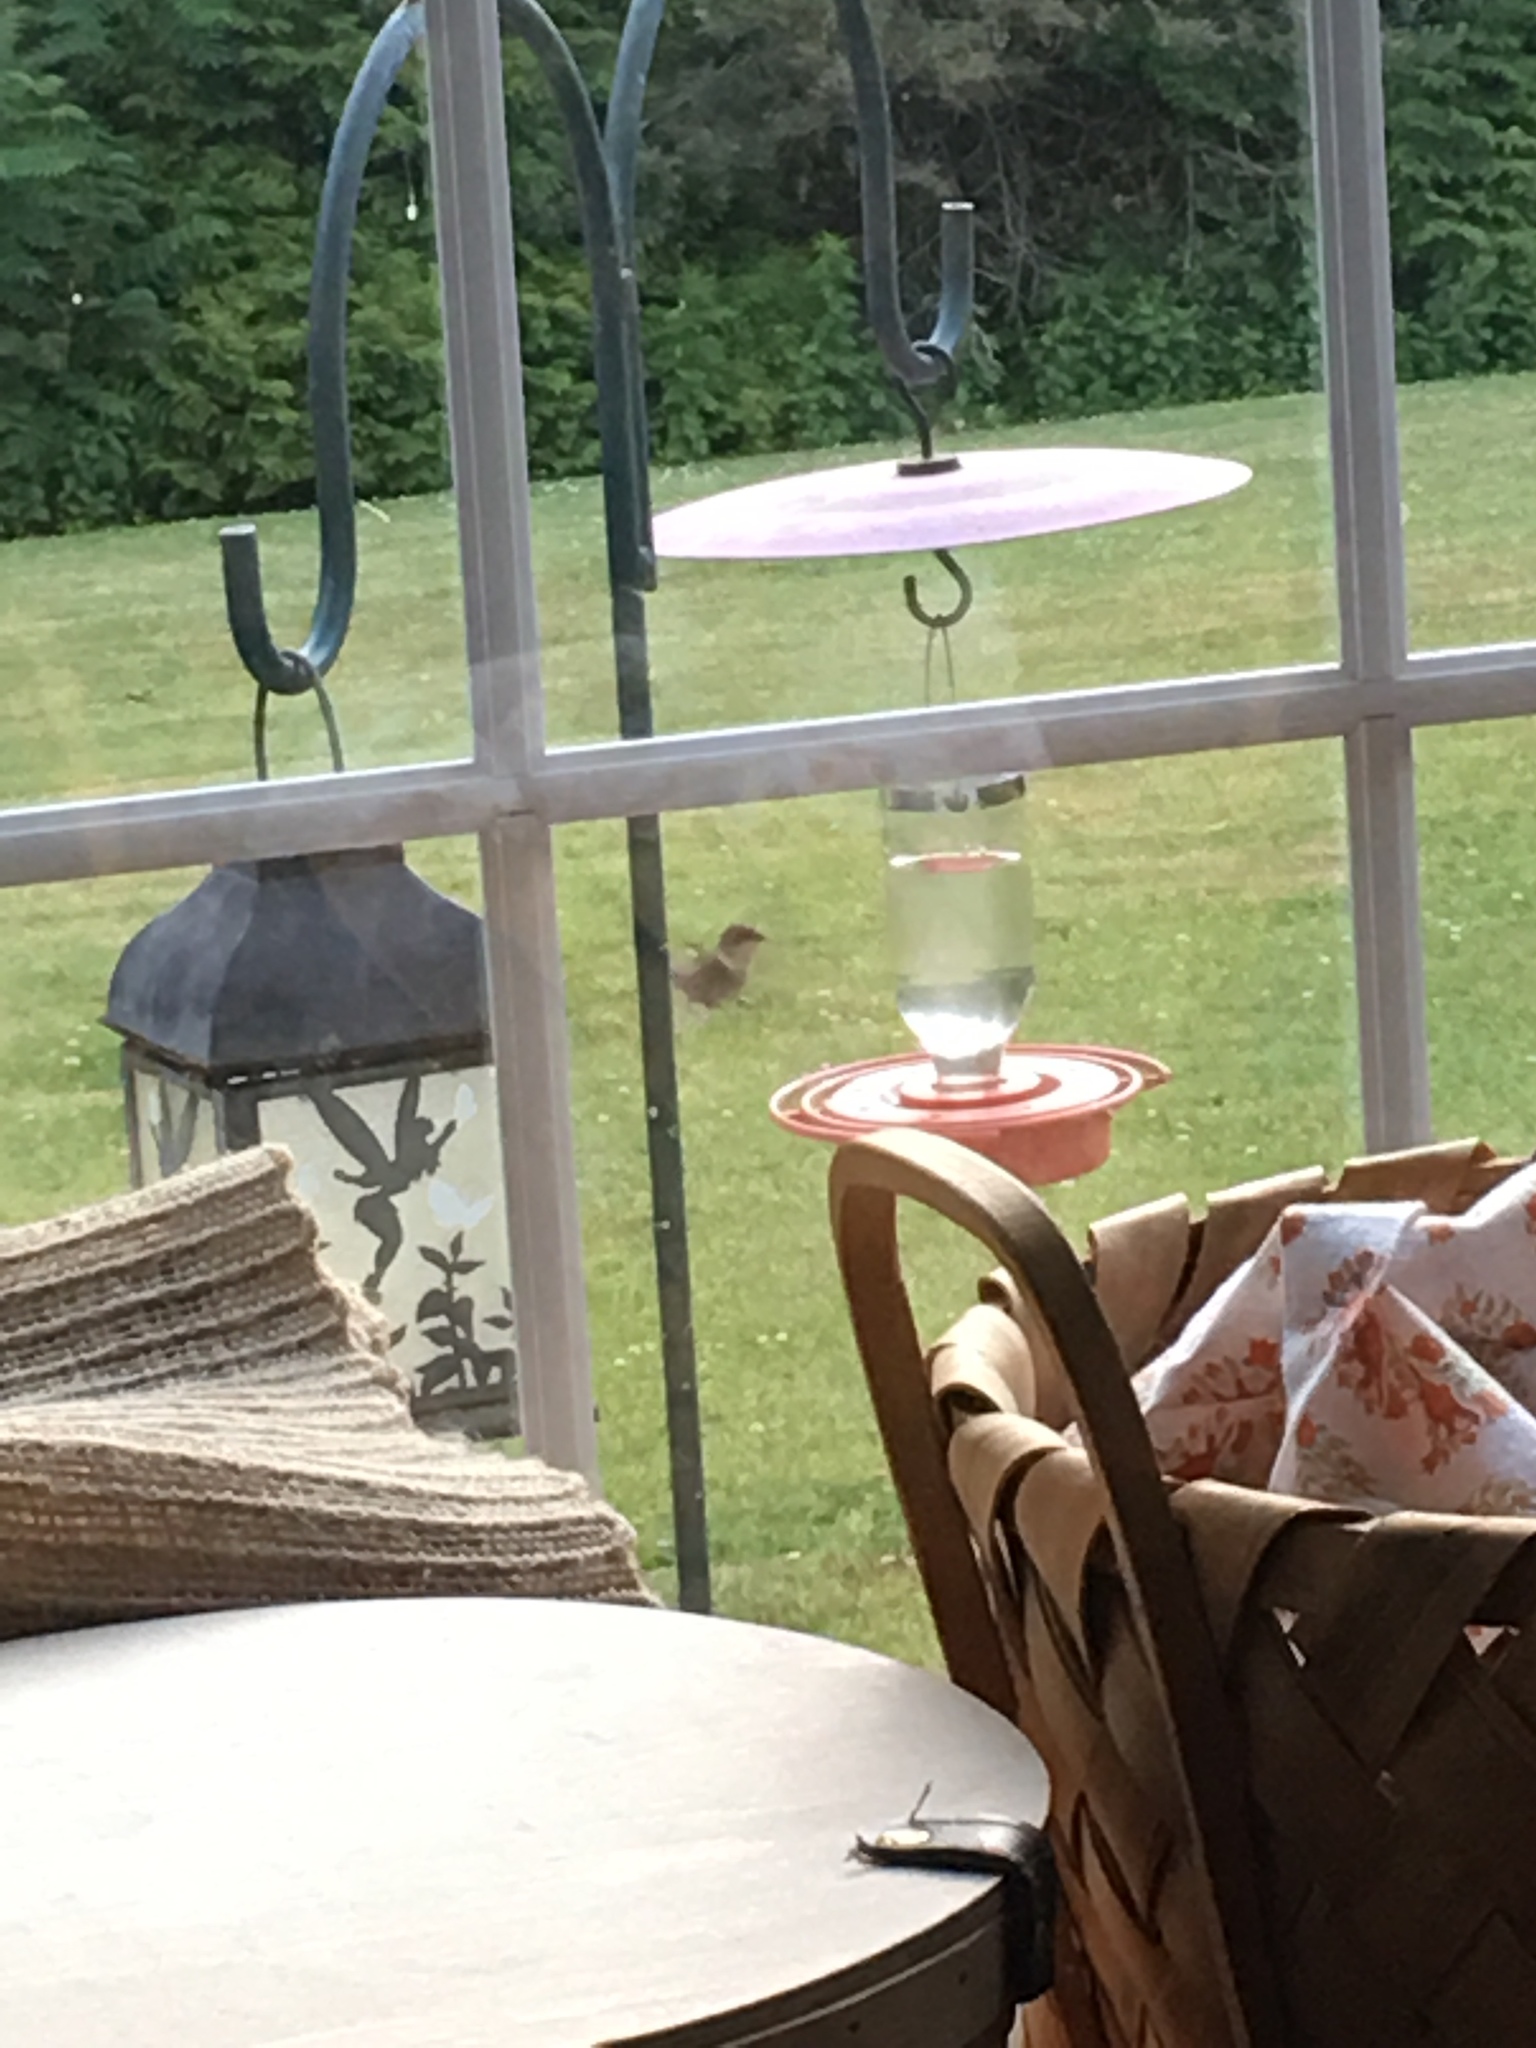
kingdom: Animalia
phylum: Chordata
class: Aves
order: Apodiformes
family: Trochilidae
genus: Archilochus
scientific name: Archilochus colubris
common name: Ruby-throated hummingbird
